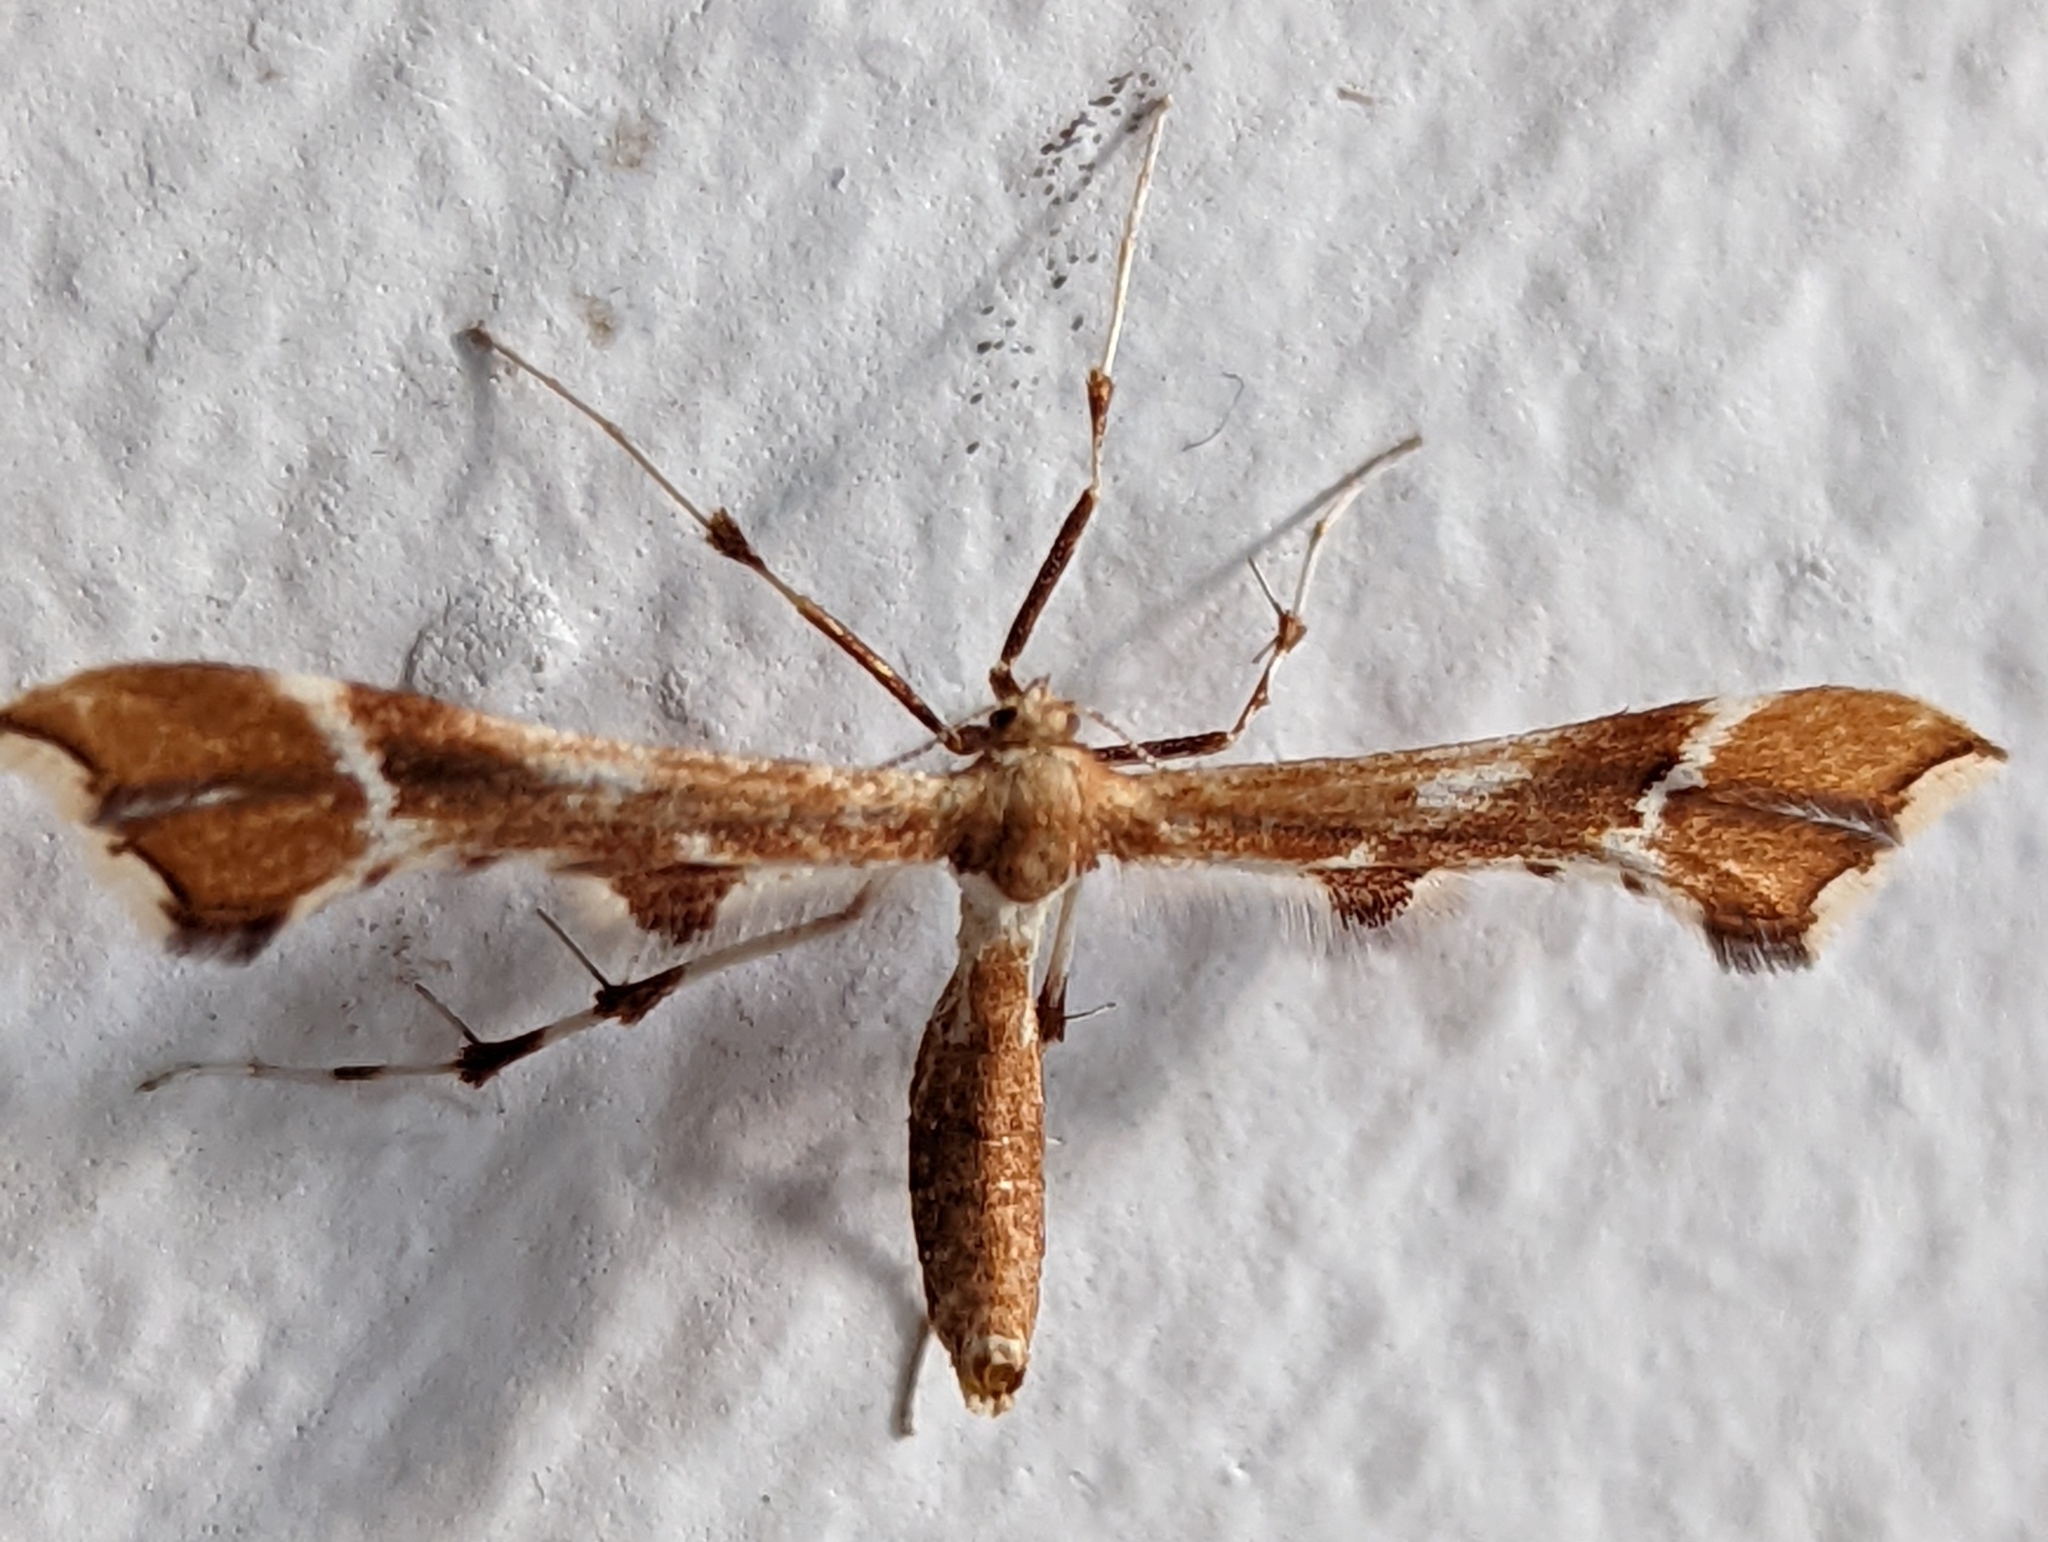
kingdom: Animalia
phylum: Arthropoda
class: Insecta
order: Lepidoptera
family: Pterophoridae
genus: Cnaemidophorus
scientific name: Cnaemidophorus rhododactyla
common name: Rose plume
